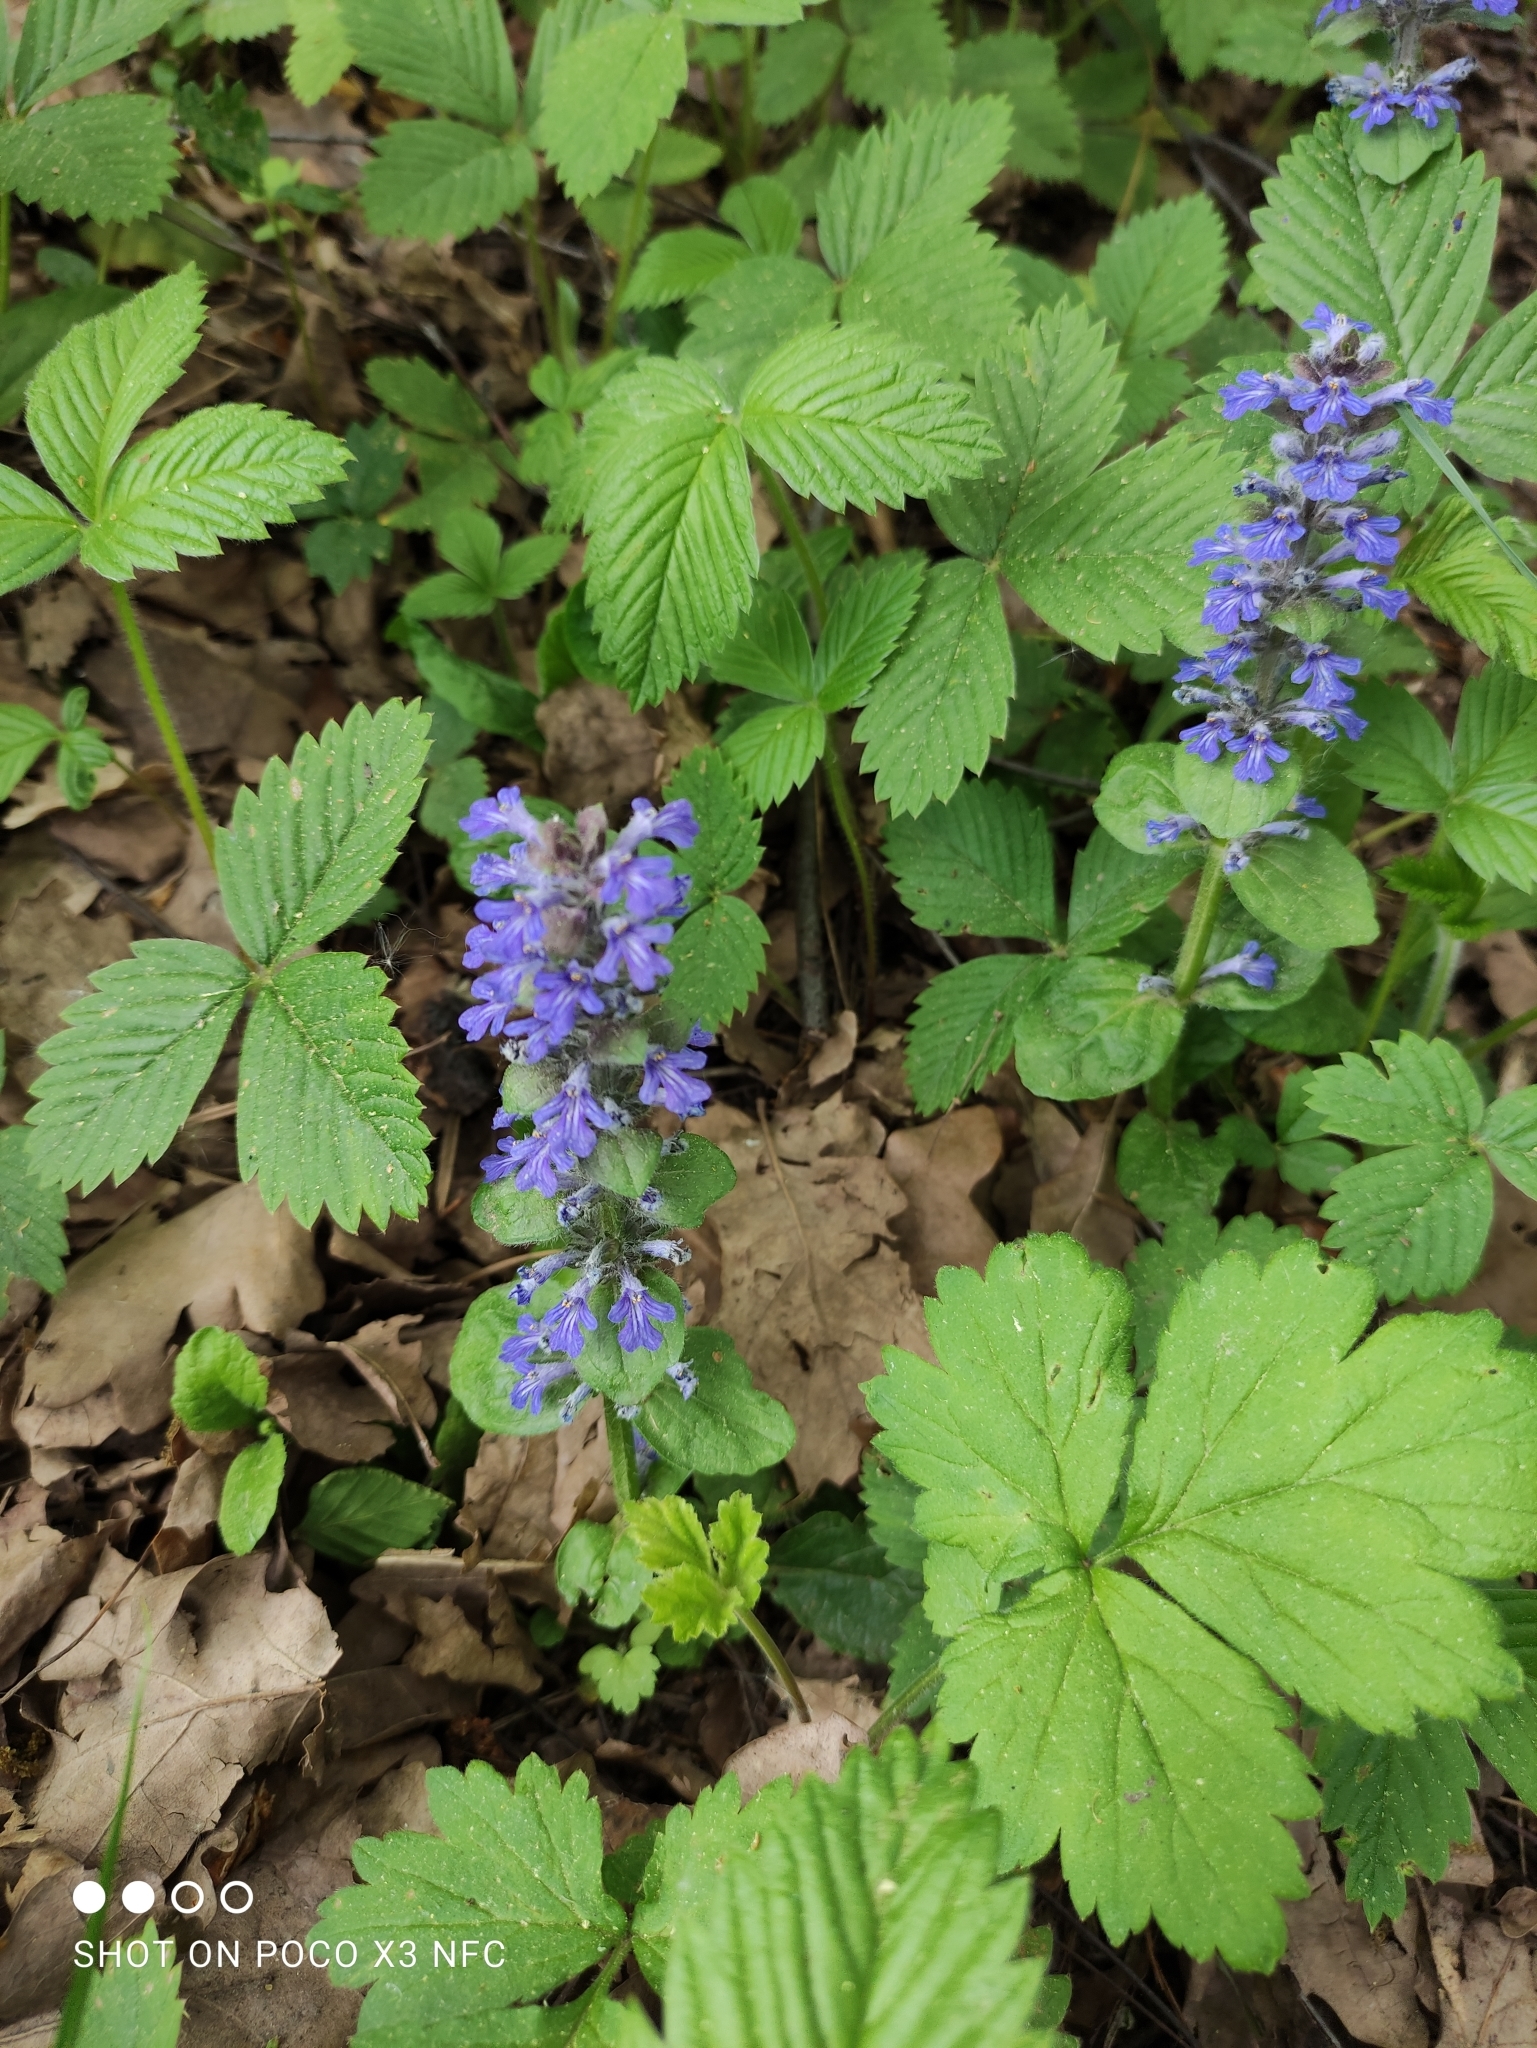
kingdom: Plantae
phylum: Tracheophyta
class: Magnoliopsida
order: Lamiales
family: Lamiaceae
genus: Ajuga
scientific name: Ajuga reptans
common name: Bugle
